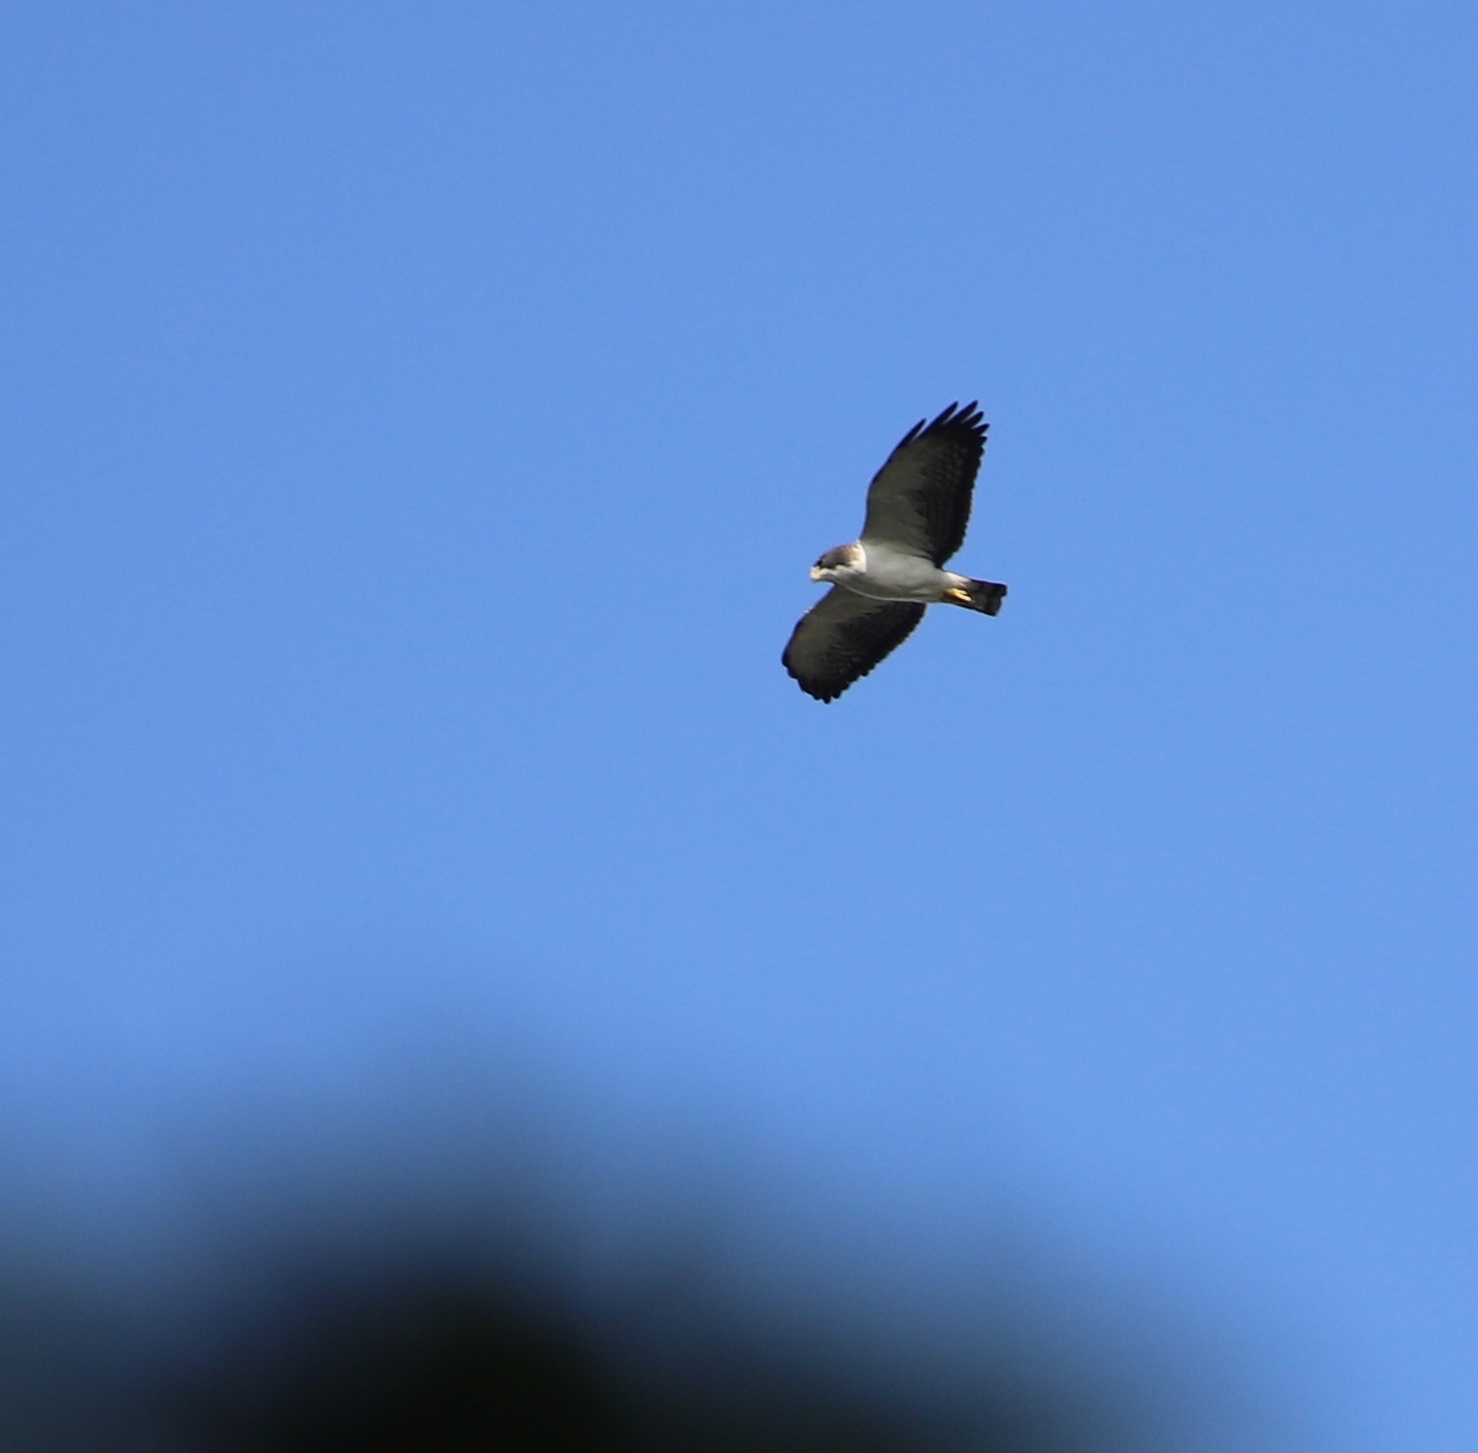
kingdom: Animalia
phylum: Chordata
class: Aves
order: Accipitriformes
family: Accipitridae
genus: Buteo
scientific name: Buteo brachyurus
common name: Short-tailed hawk
